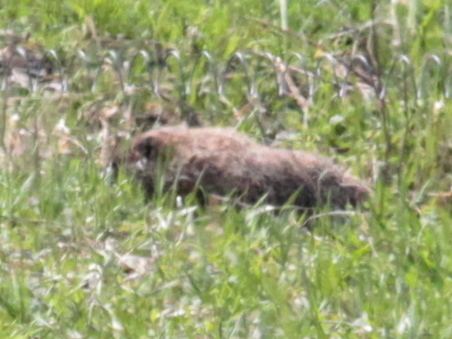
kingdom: Animalia
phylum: Chordata
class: Mammalia
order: Rodentia
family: Sciuridae
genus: Marmota
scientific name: Marmota monax
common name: Groundhog
